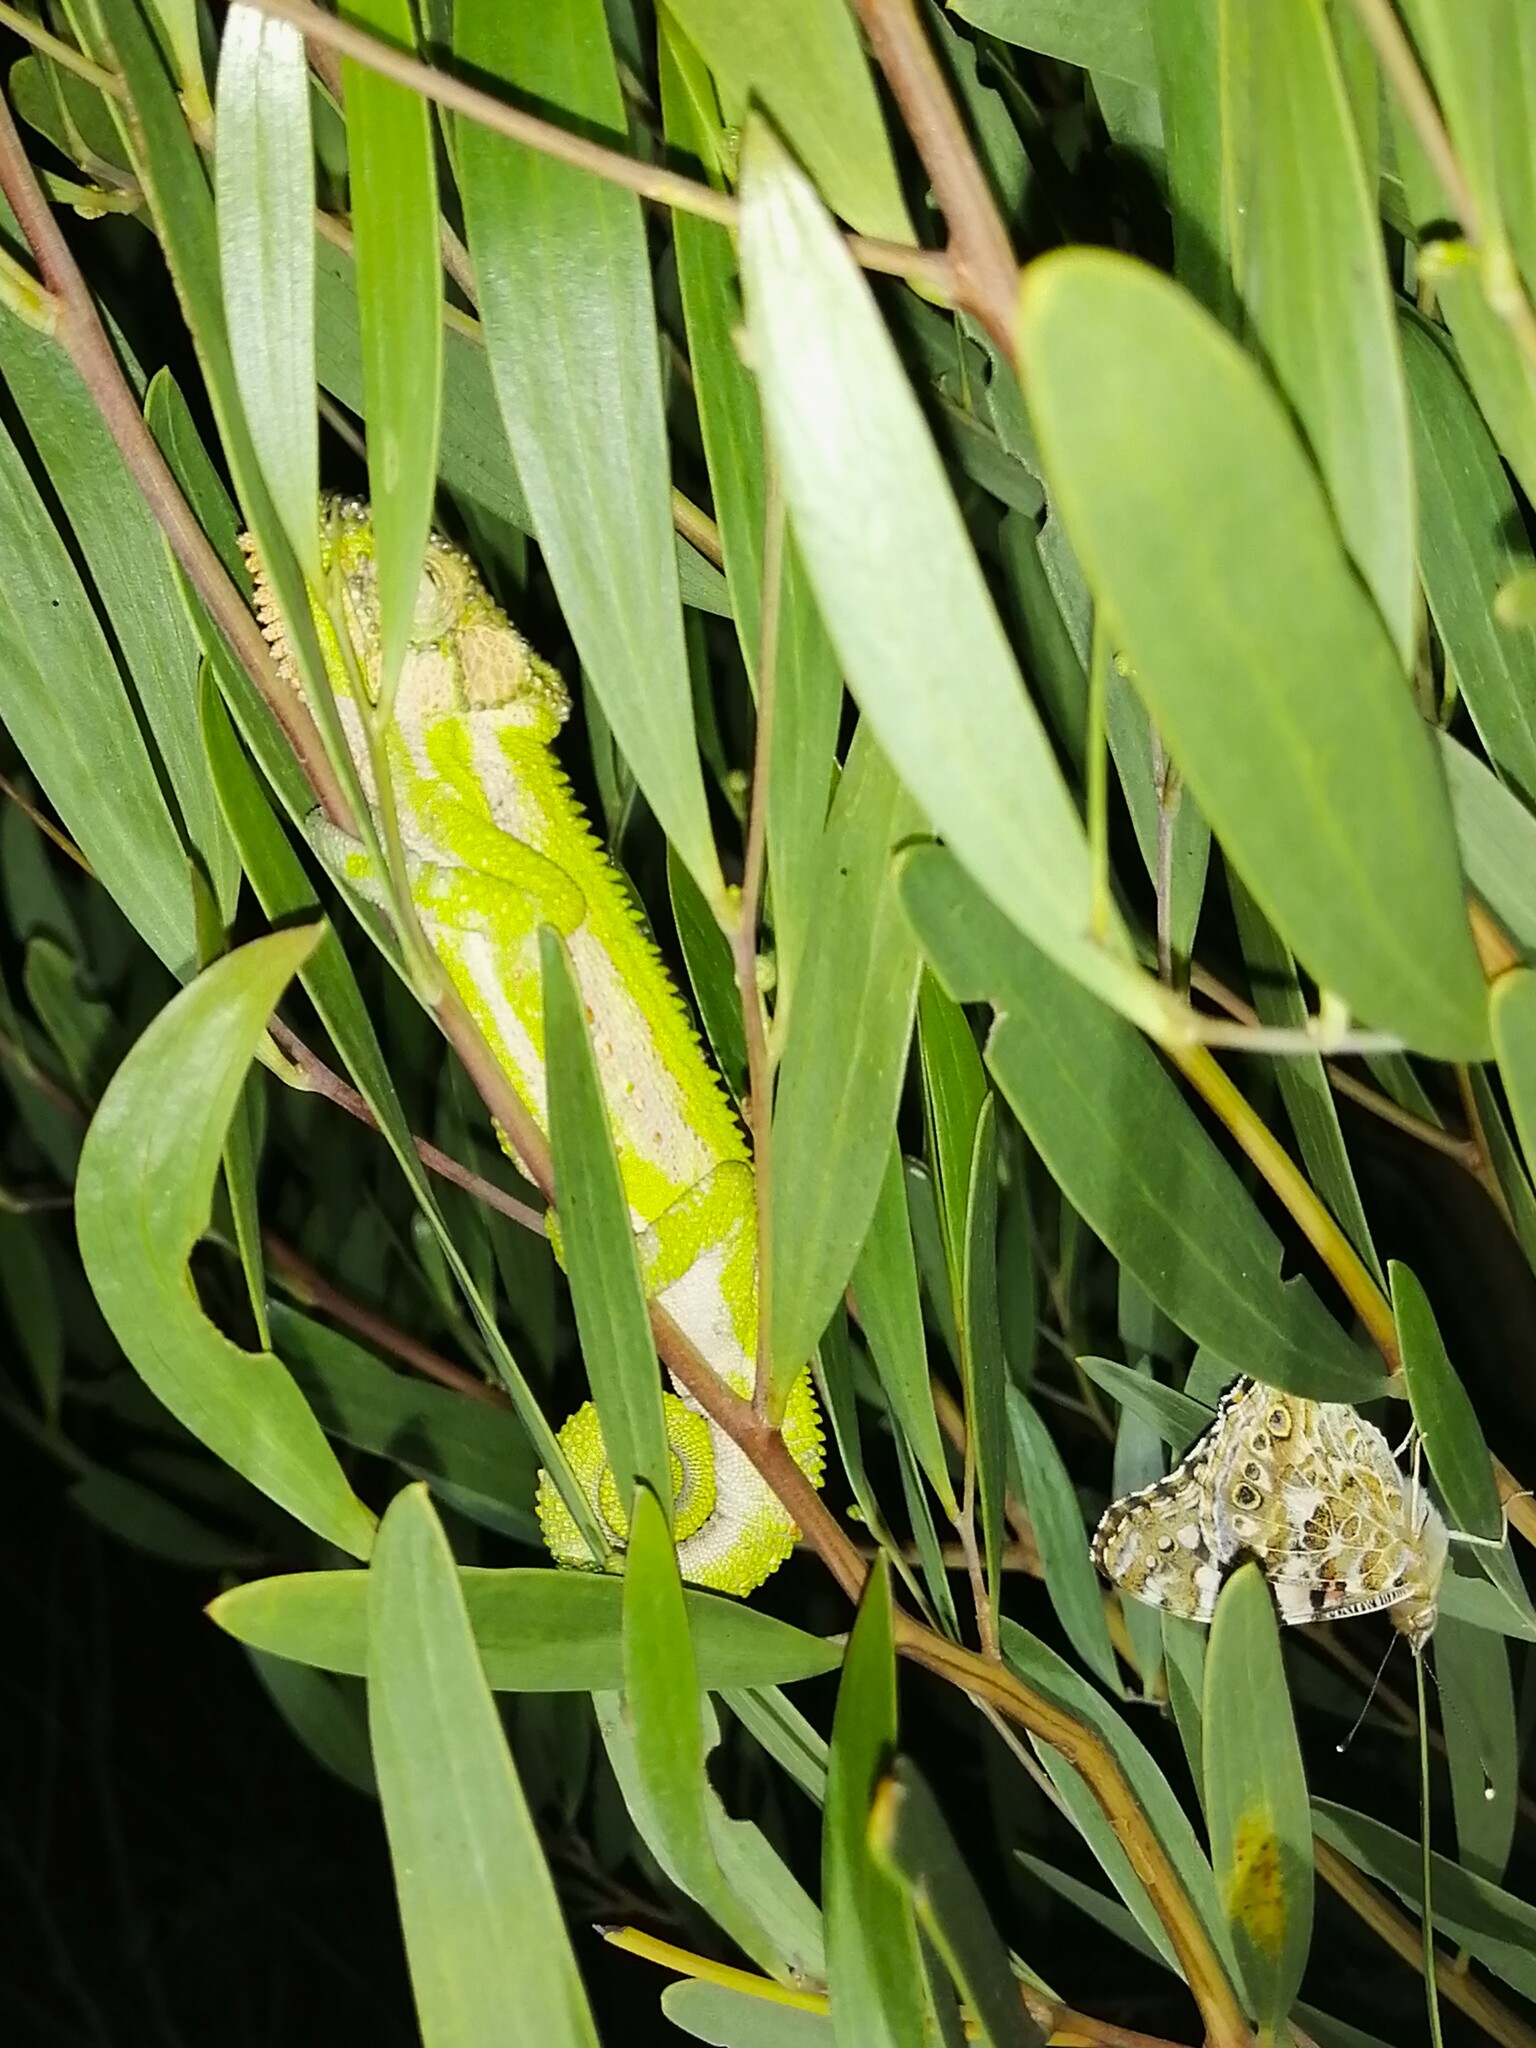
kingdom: Animalia
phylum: Chordata
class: Squamata
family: Chamaeleonidae
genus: Bradypodion
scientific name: Bradypodion pumilum
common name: Cape dwarf chameleon
